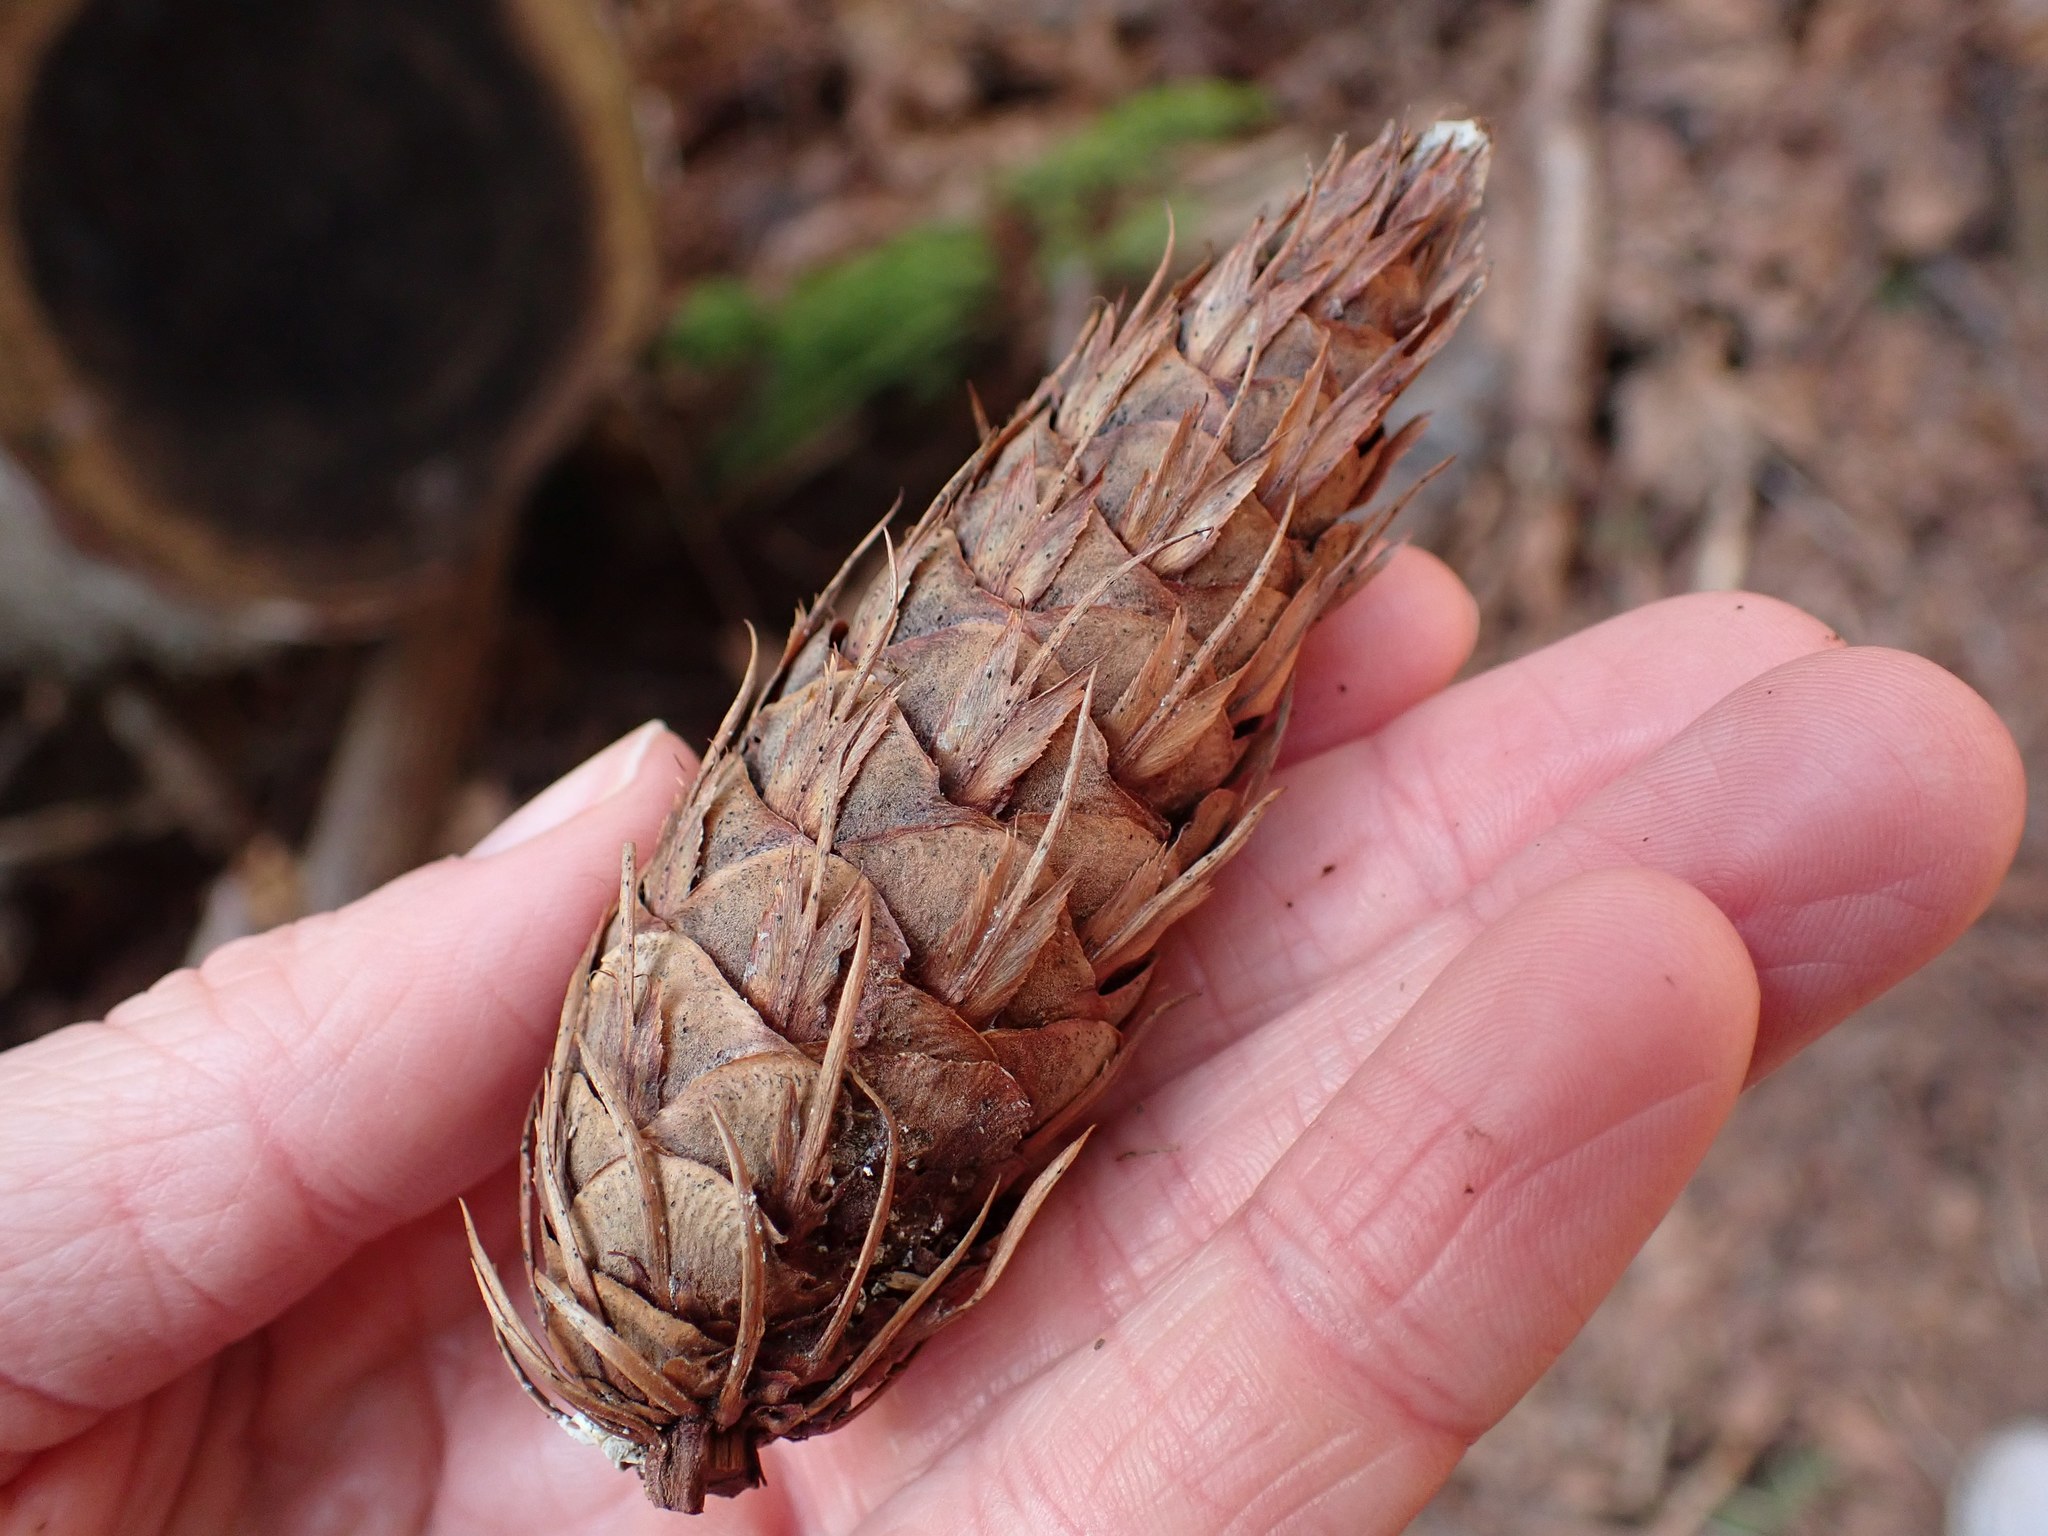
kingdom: Plantae
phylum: Tracheophyta
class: Pinopsida
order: Pinales
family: Pinaceae
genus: Pseudotsuga
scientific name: Pseudotsuga menziesii
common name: Douglas fir
